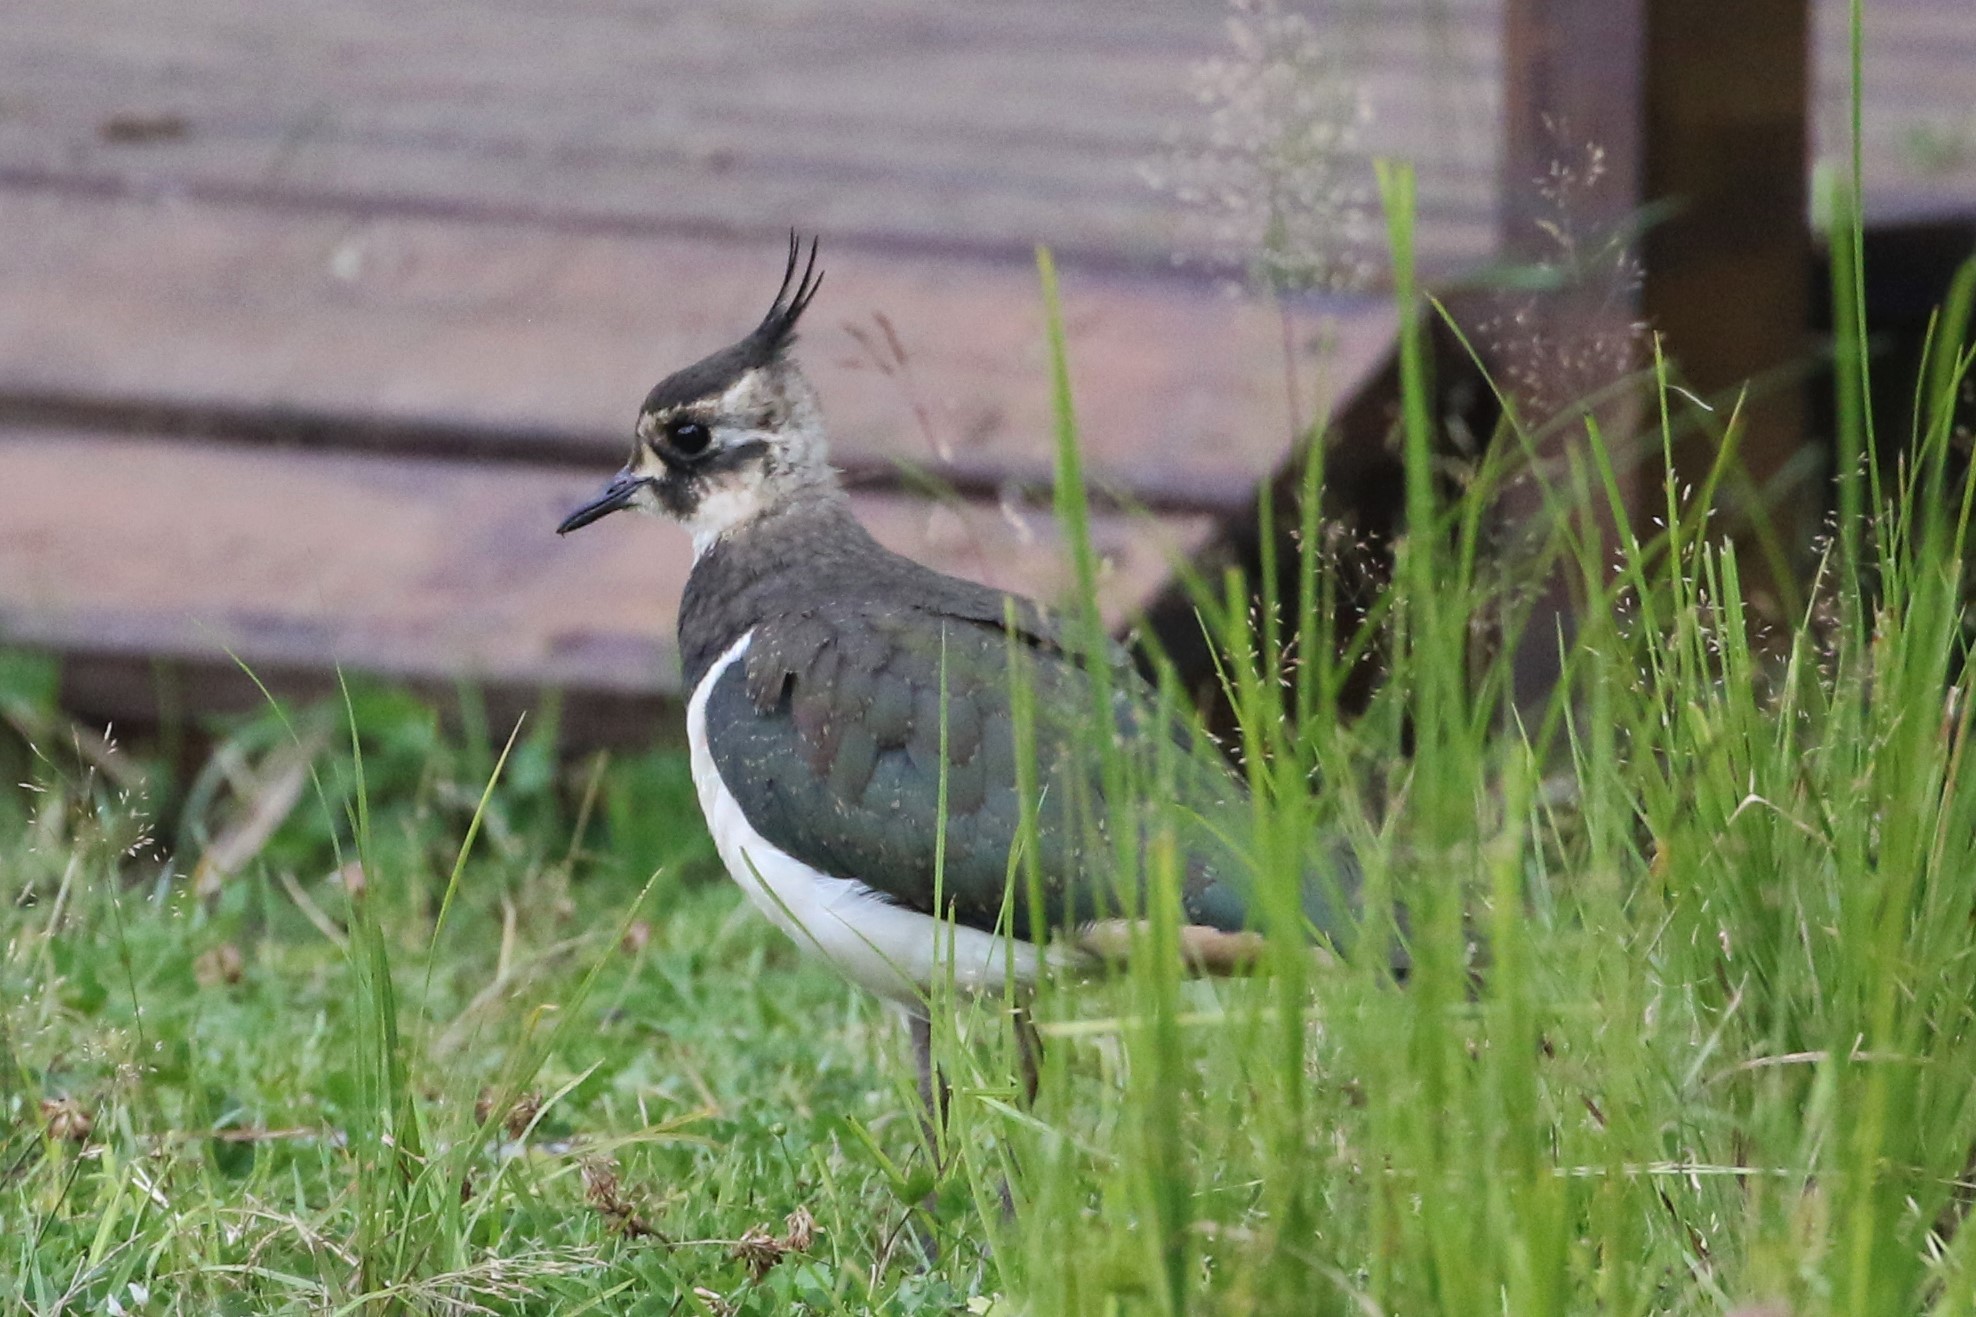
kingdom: Animalia
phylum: Chordata
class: Aves
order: Charadriiformes
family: Charadriidae
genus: Vanellus
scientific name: Vanellus vanellus
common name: Northern lapwing
